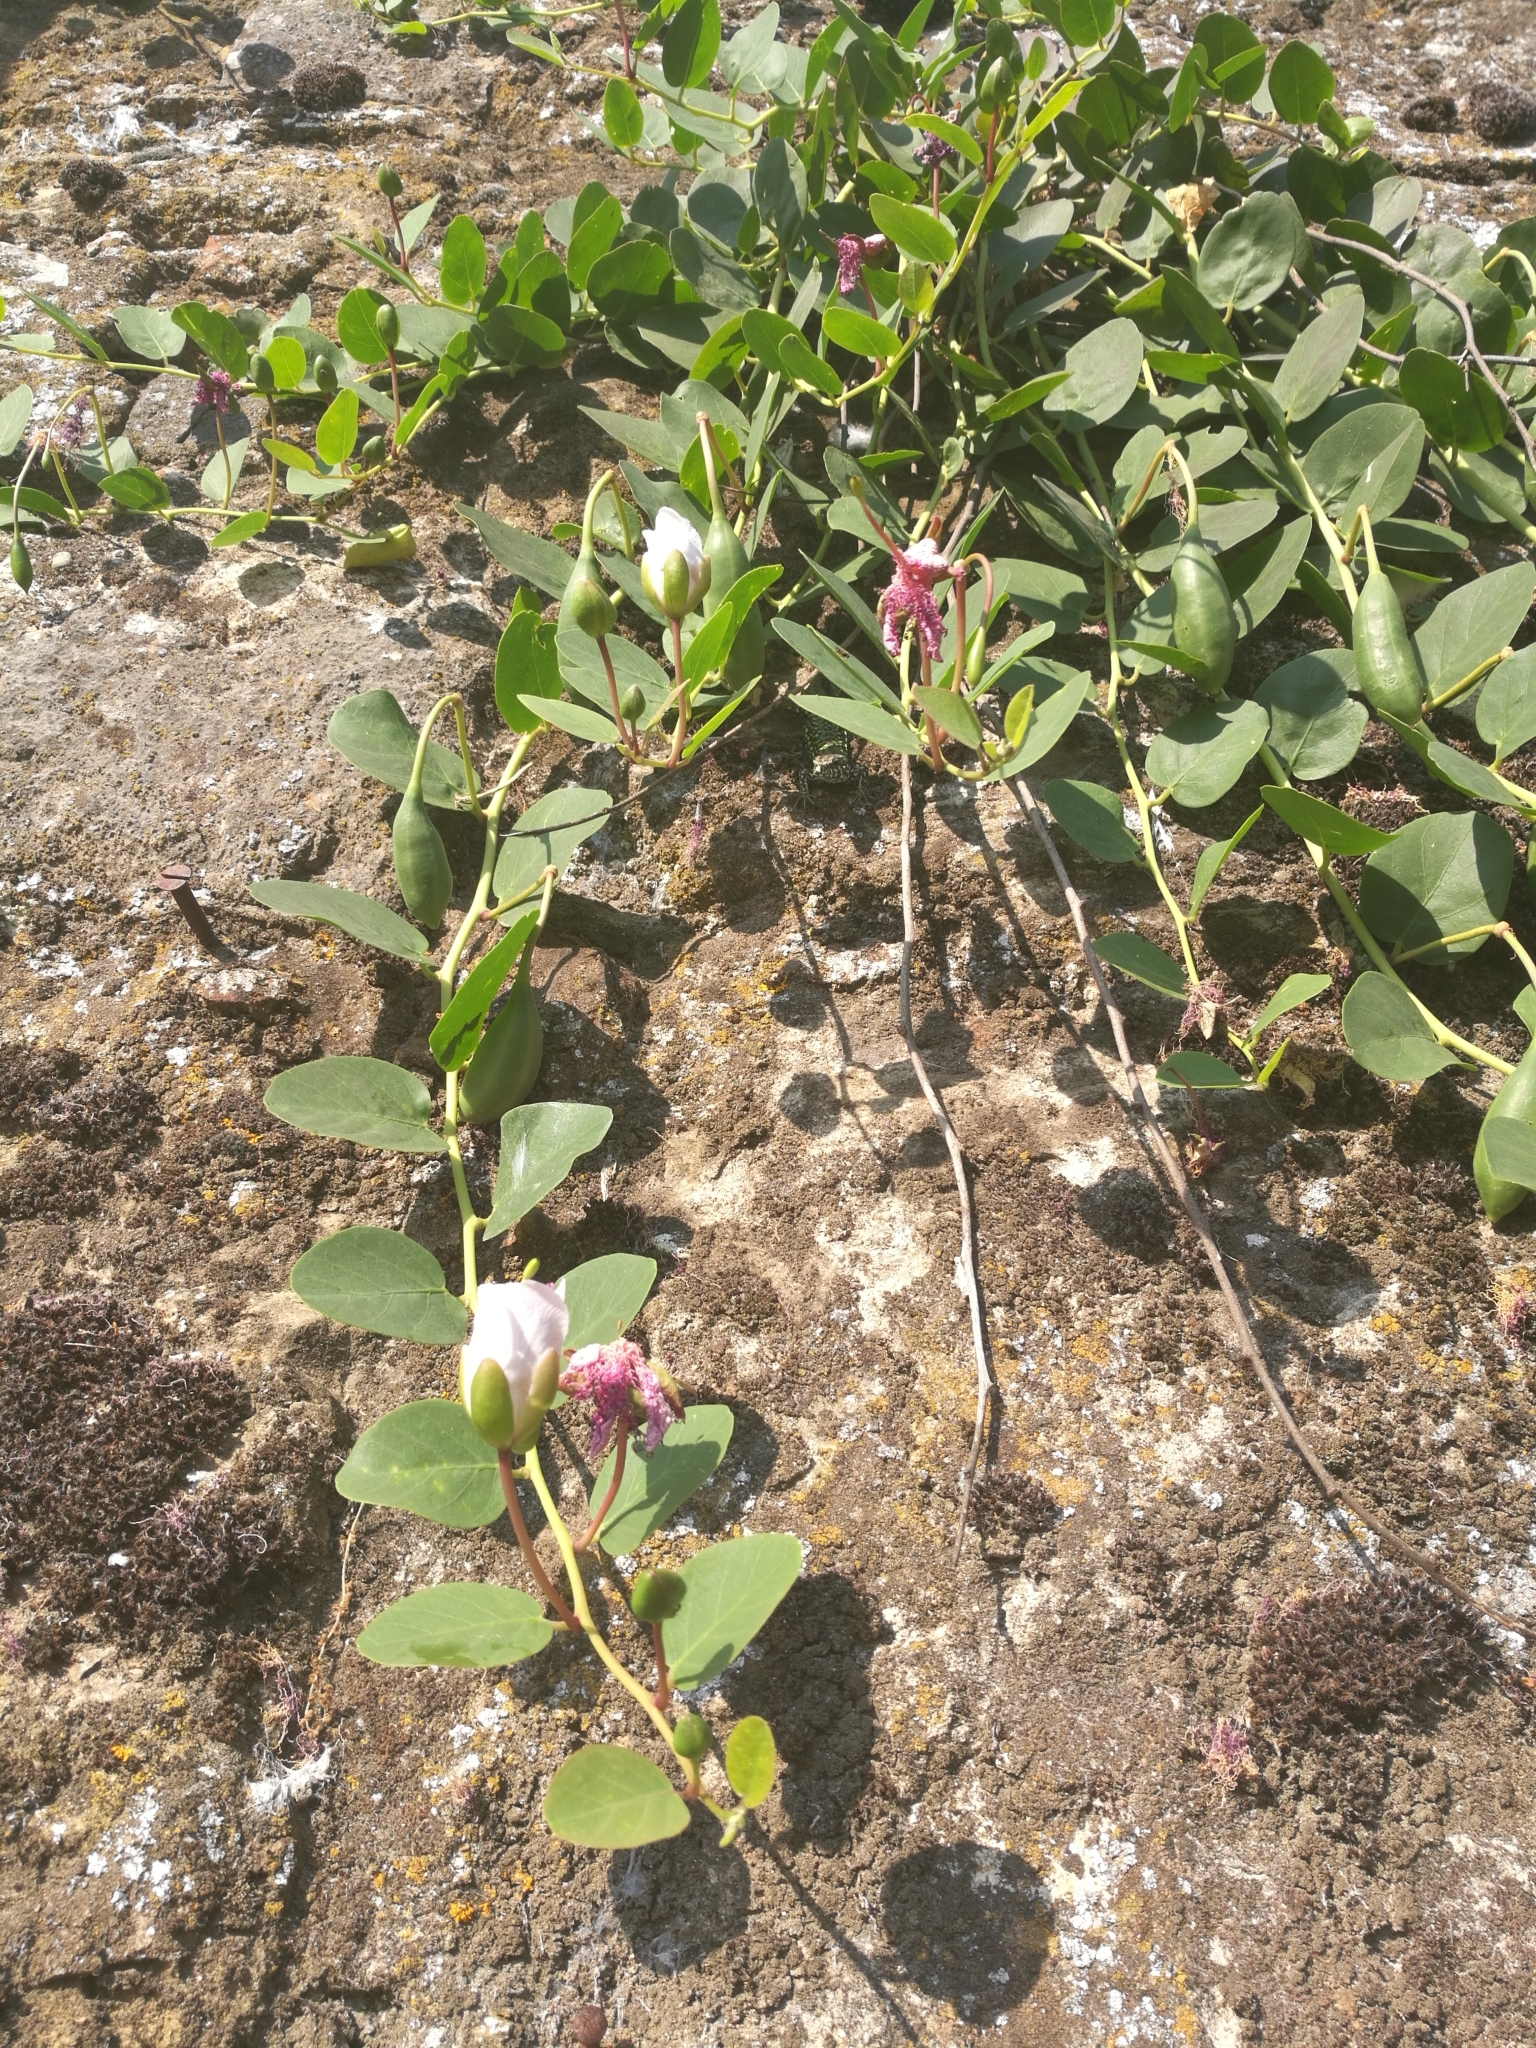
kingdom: Plantae
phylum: Tracheophyta
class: Magnoliopsida
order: Brassicales
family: Capparaceae
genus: Capparis
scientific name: Capparis spinosa
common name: Caper
